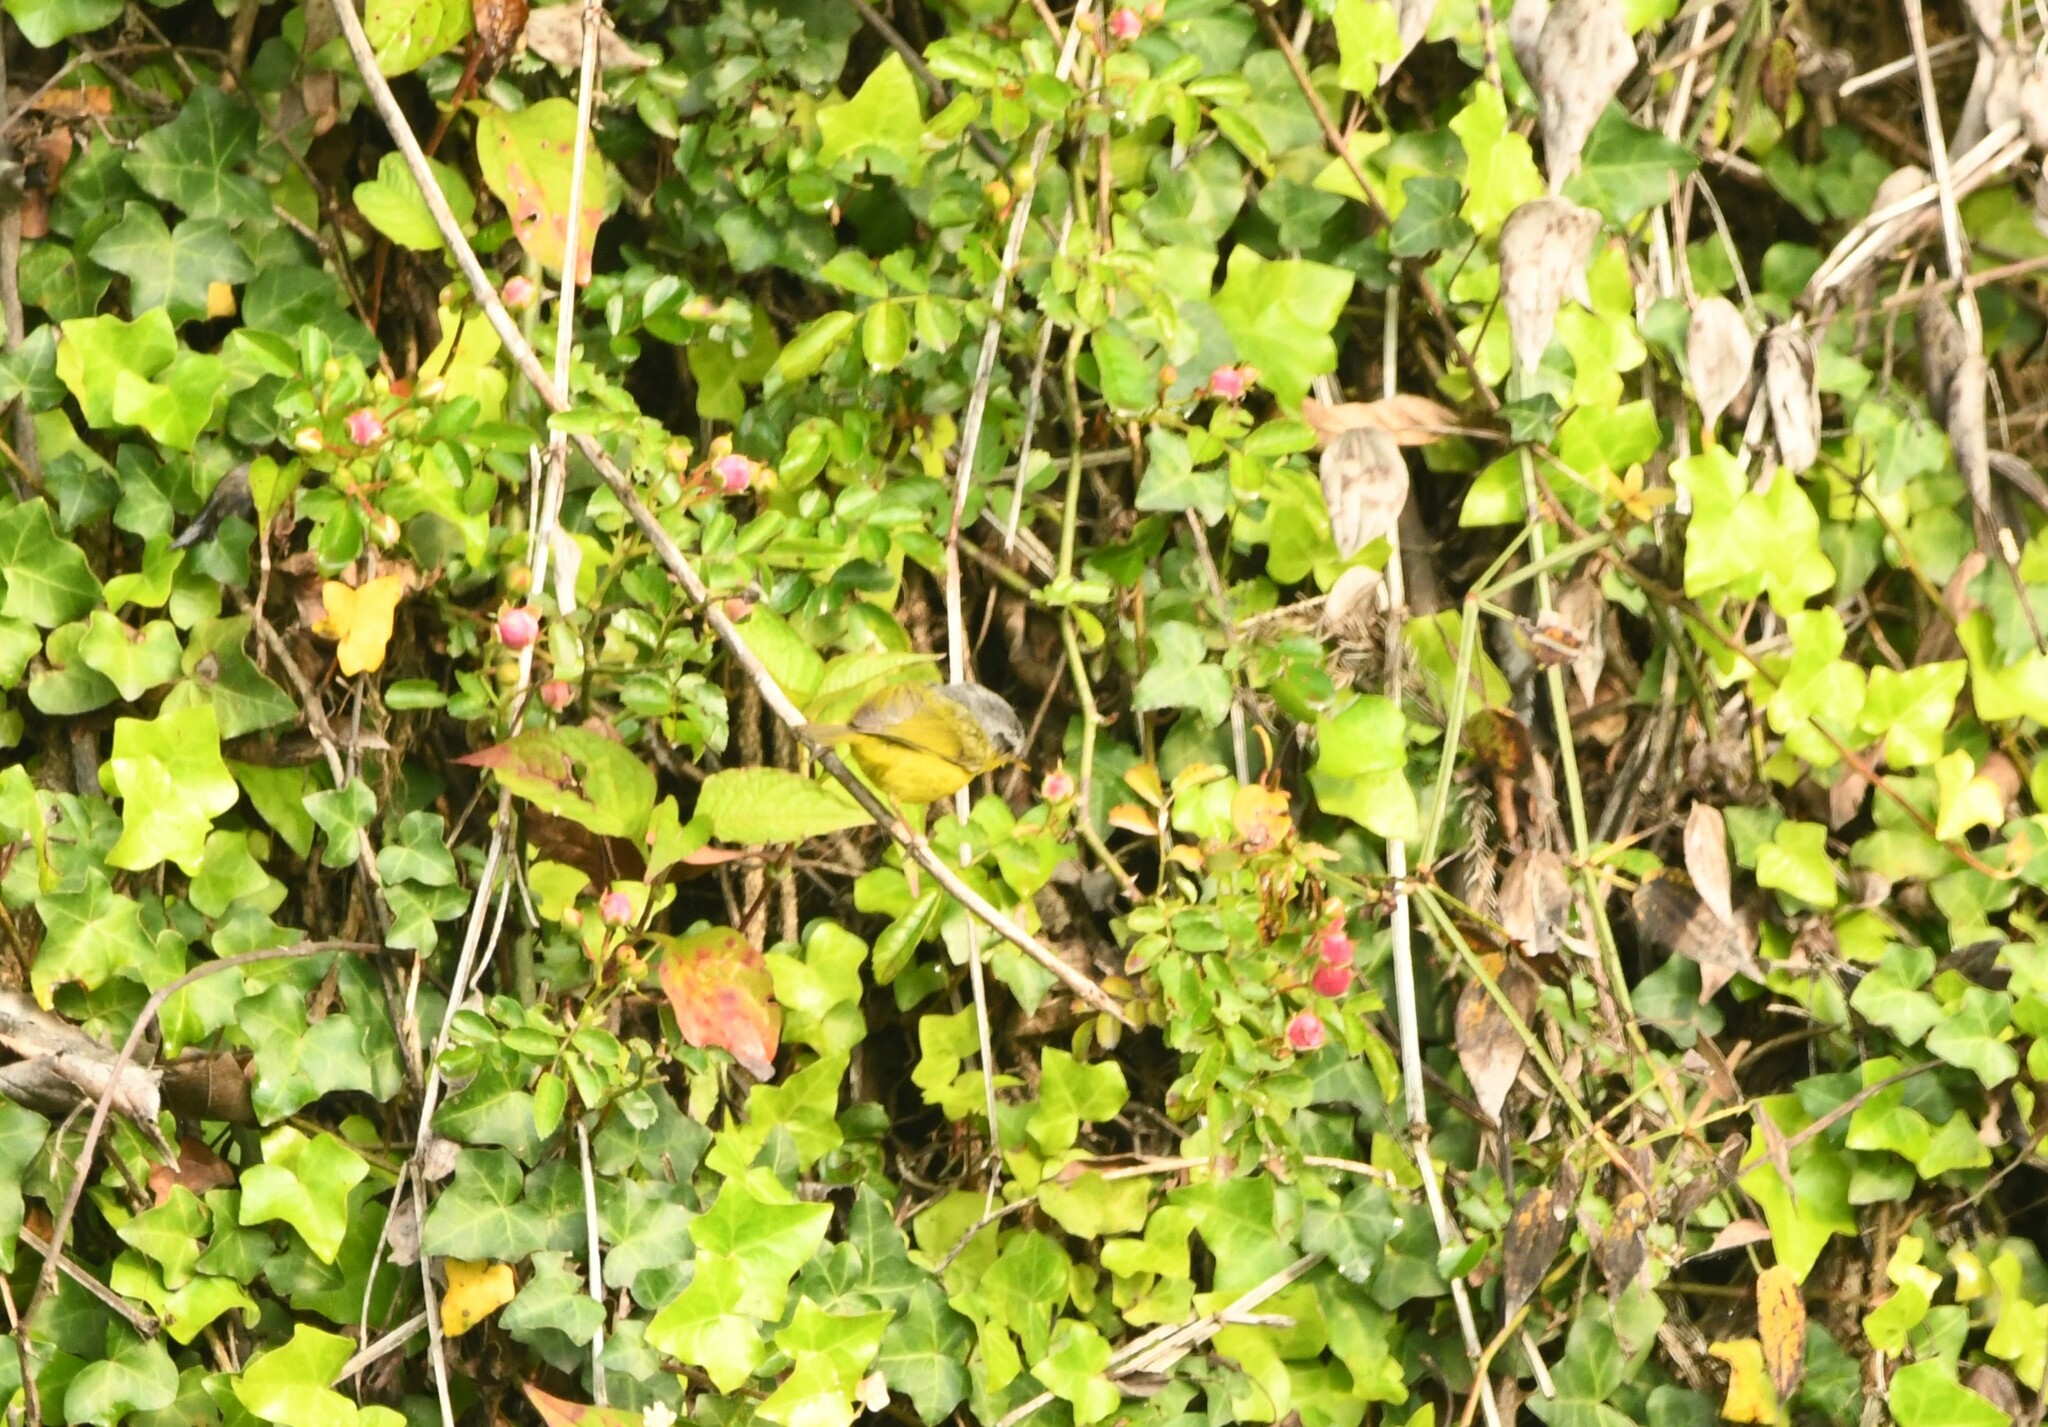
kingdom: Animalia
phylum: Chordata
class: Aves
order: Passeriformes
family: Phylloscopidae
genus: Phylloscopus
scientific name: Phylloscopus xanthoschistos
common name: Grey-hooded warbler
